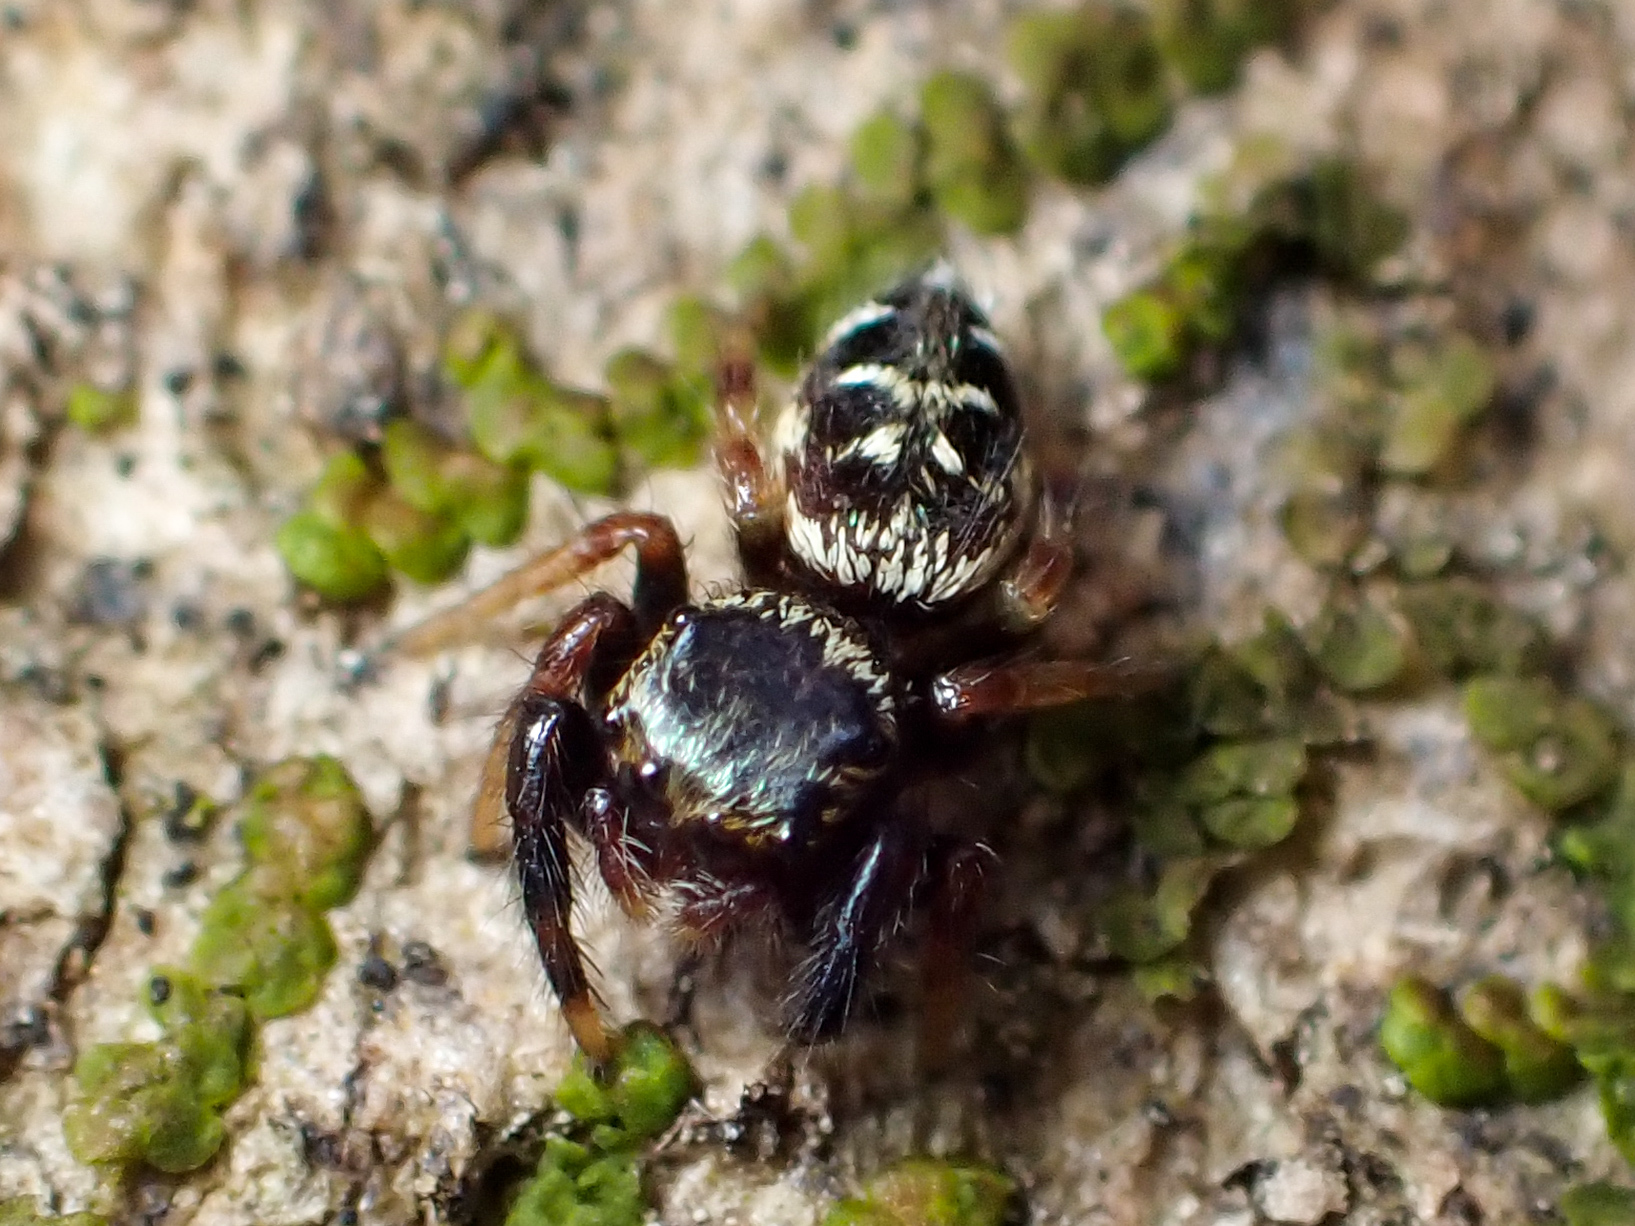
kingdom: Animalia
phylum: Arthropoda
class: Arachnida
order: Araneae
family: Salticidae
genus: Paraphidippus
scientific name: Paraphidippus aurantius
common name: Jumping spiders
